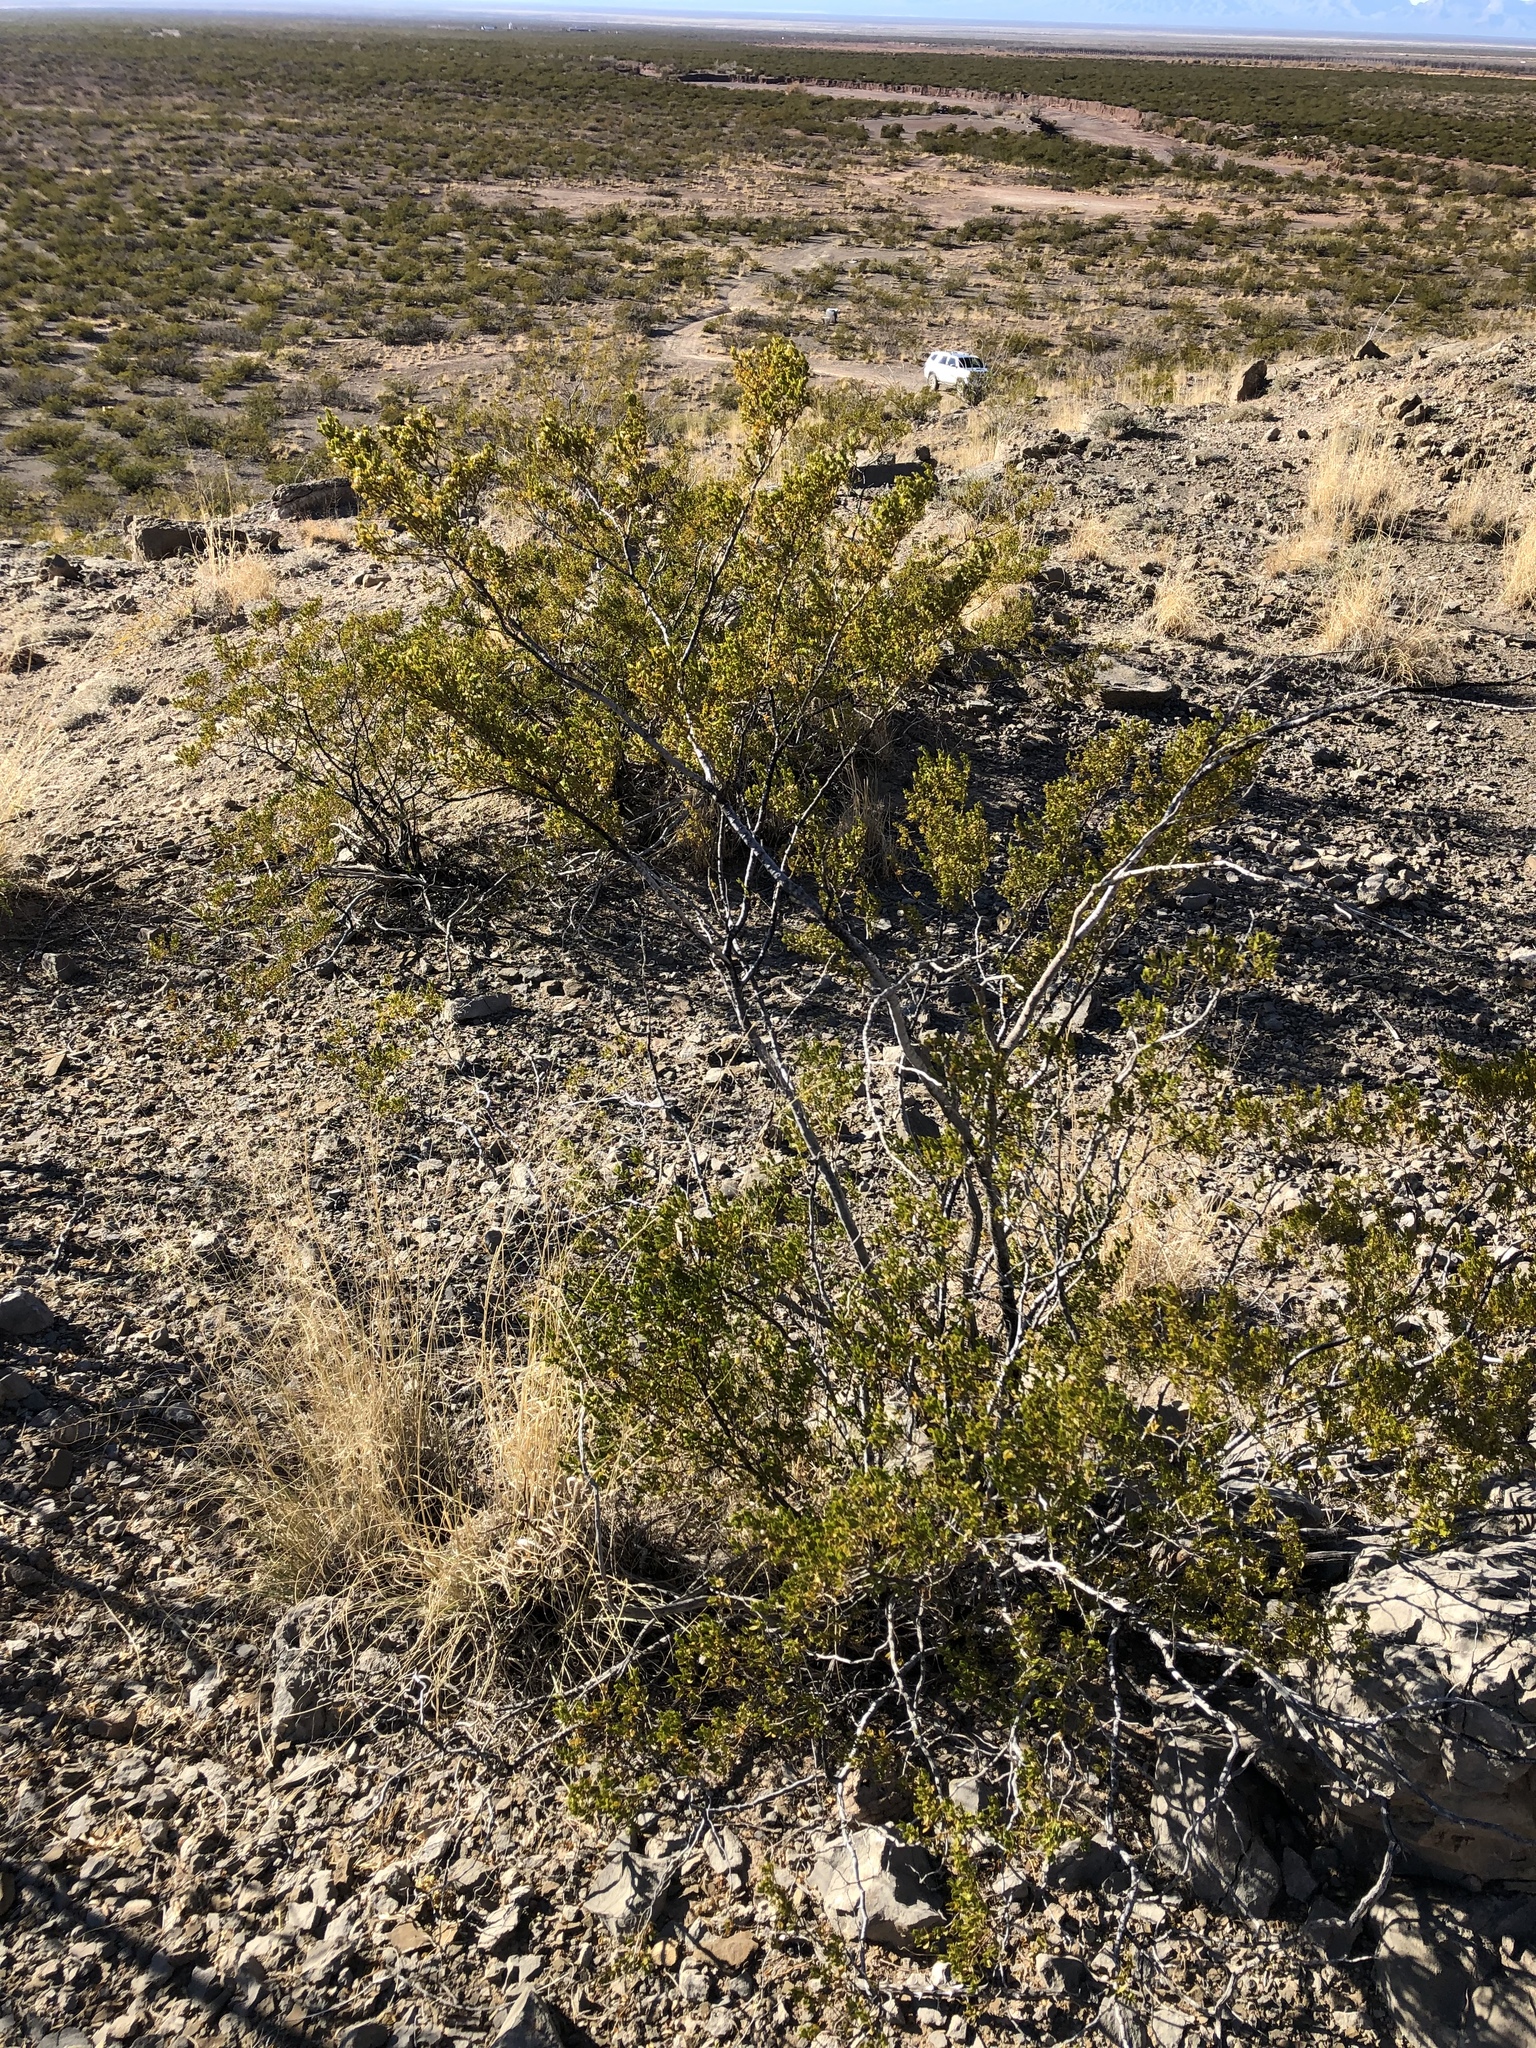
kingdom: Plantae
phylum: Tracheophyta
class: Magnoliopsida
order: Zygophyllales
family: Zygophyllaceae
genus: Larrea
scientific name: Larrea tridentata
